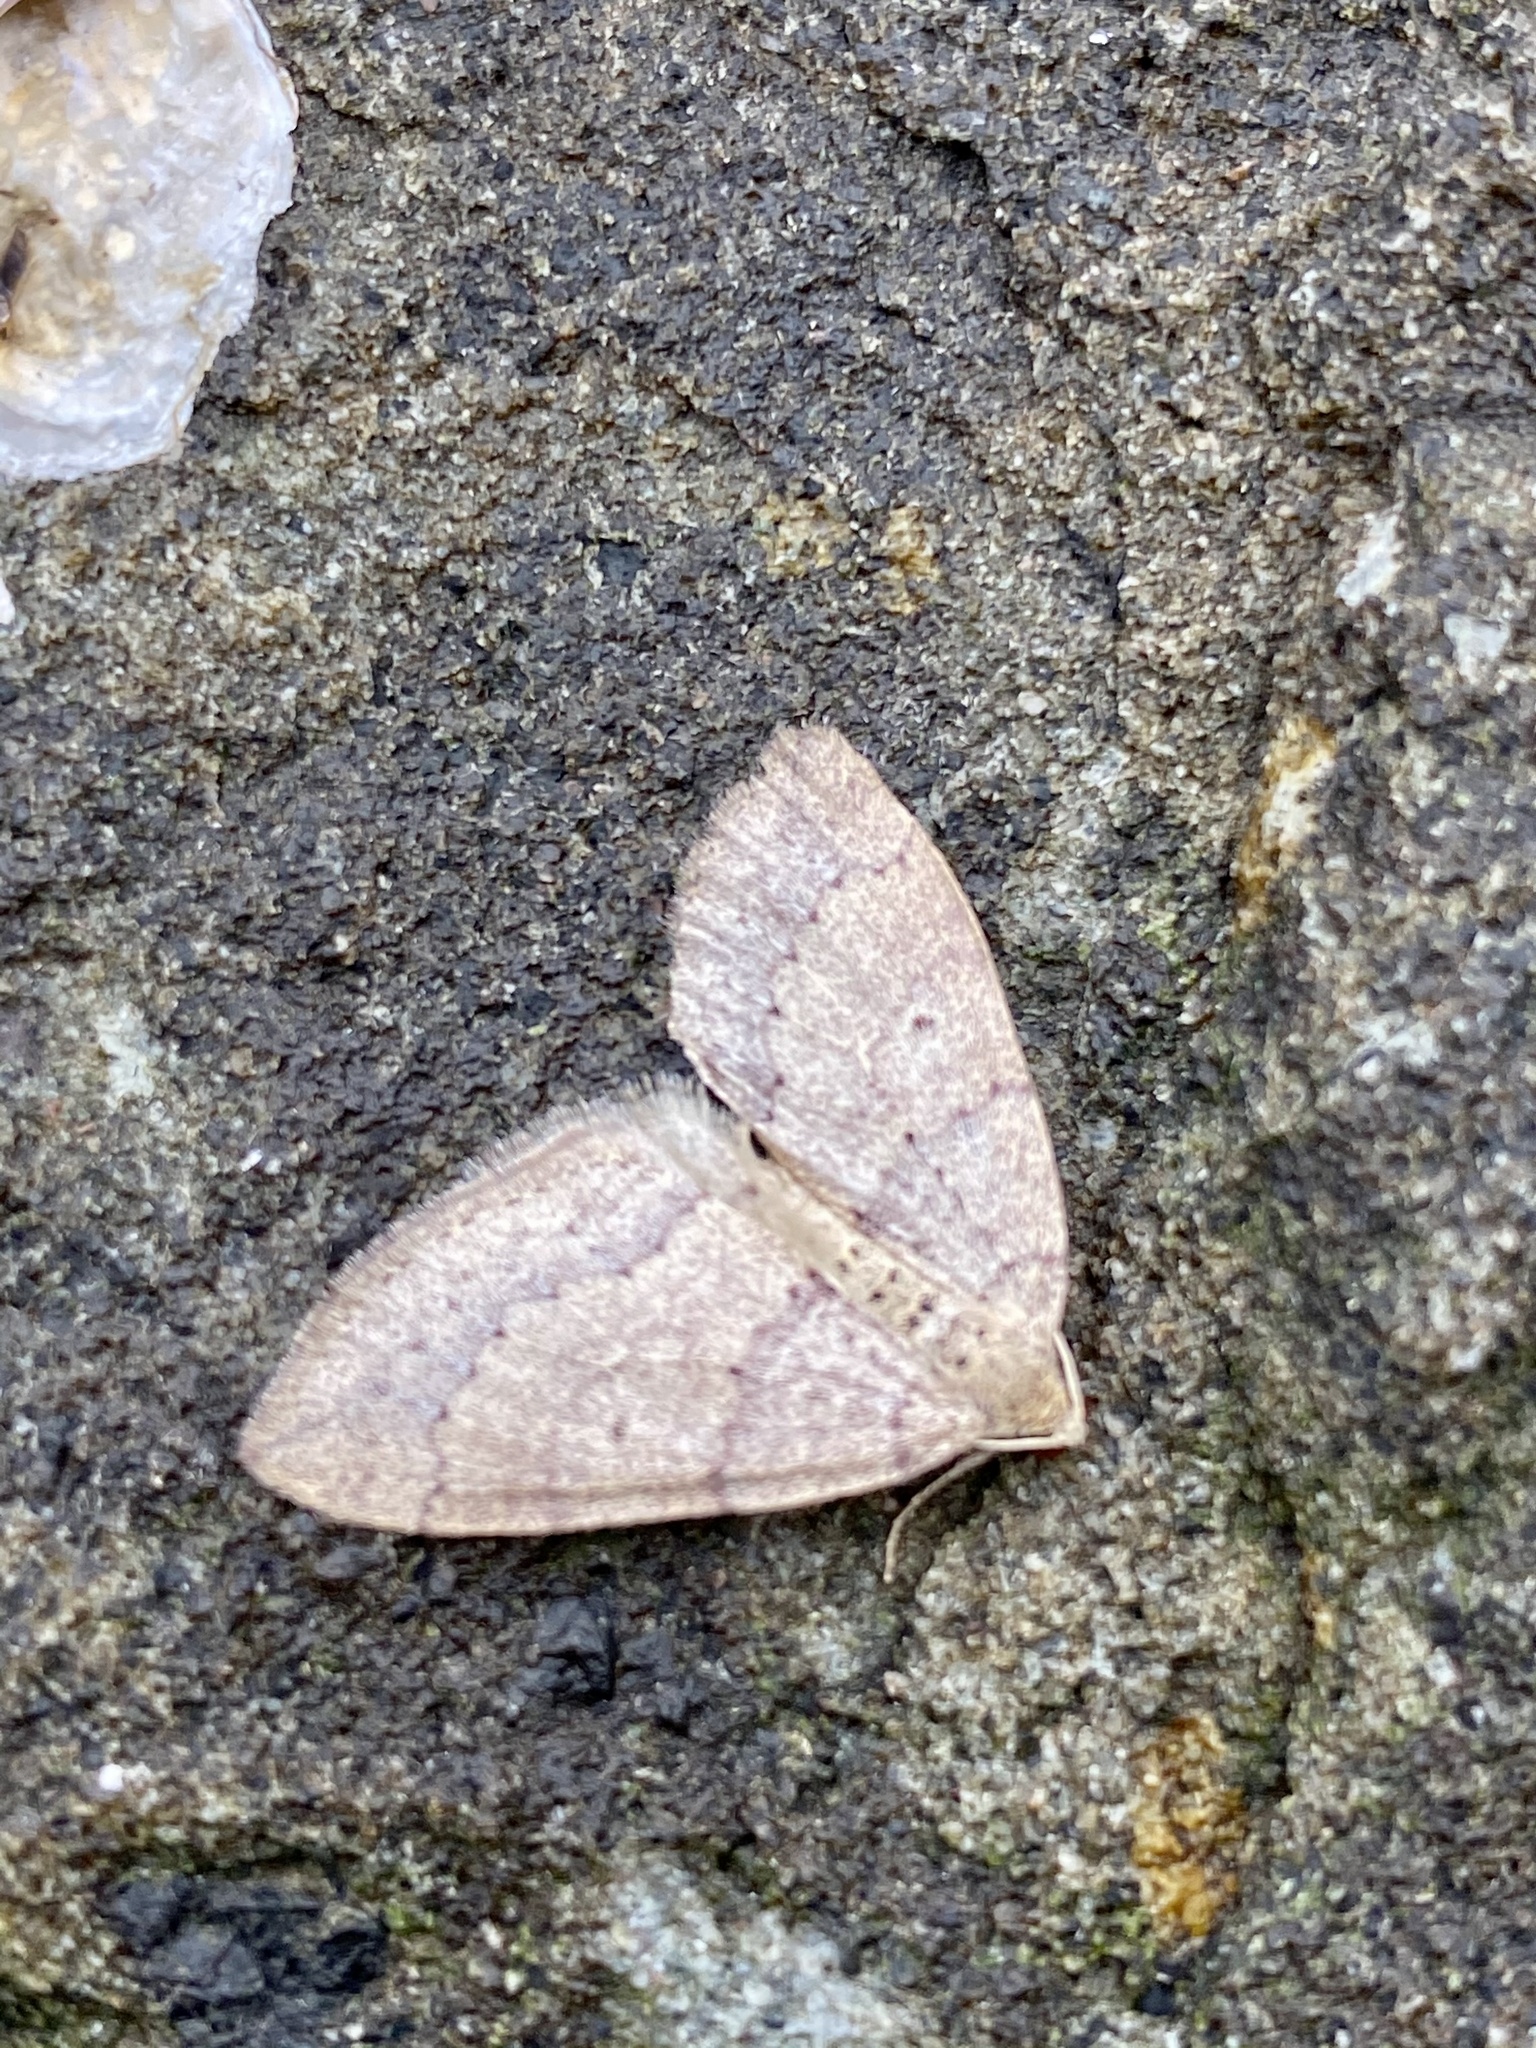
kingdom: Animalia
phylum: Arthropoda
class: Insecta
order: Lepidoptera
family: Geometridae
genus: Idiotephria
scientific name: Idiotephria debilitata
